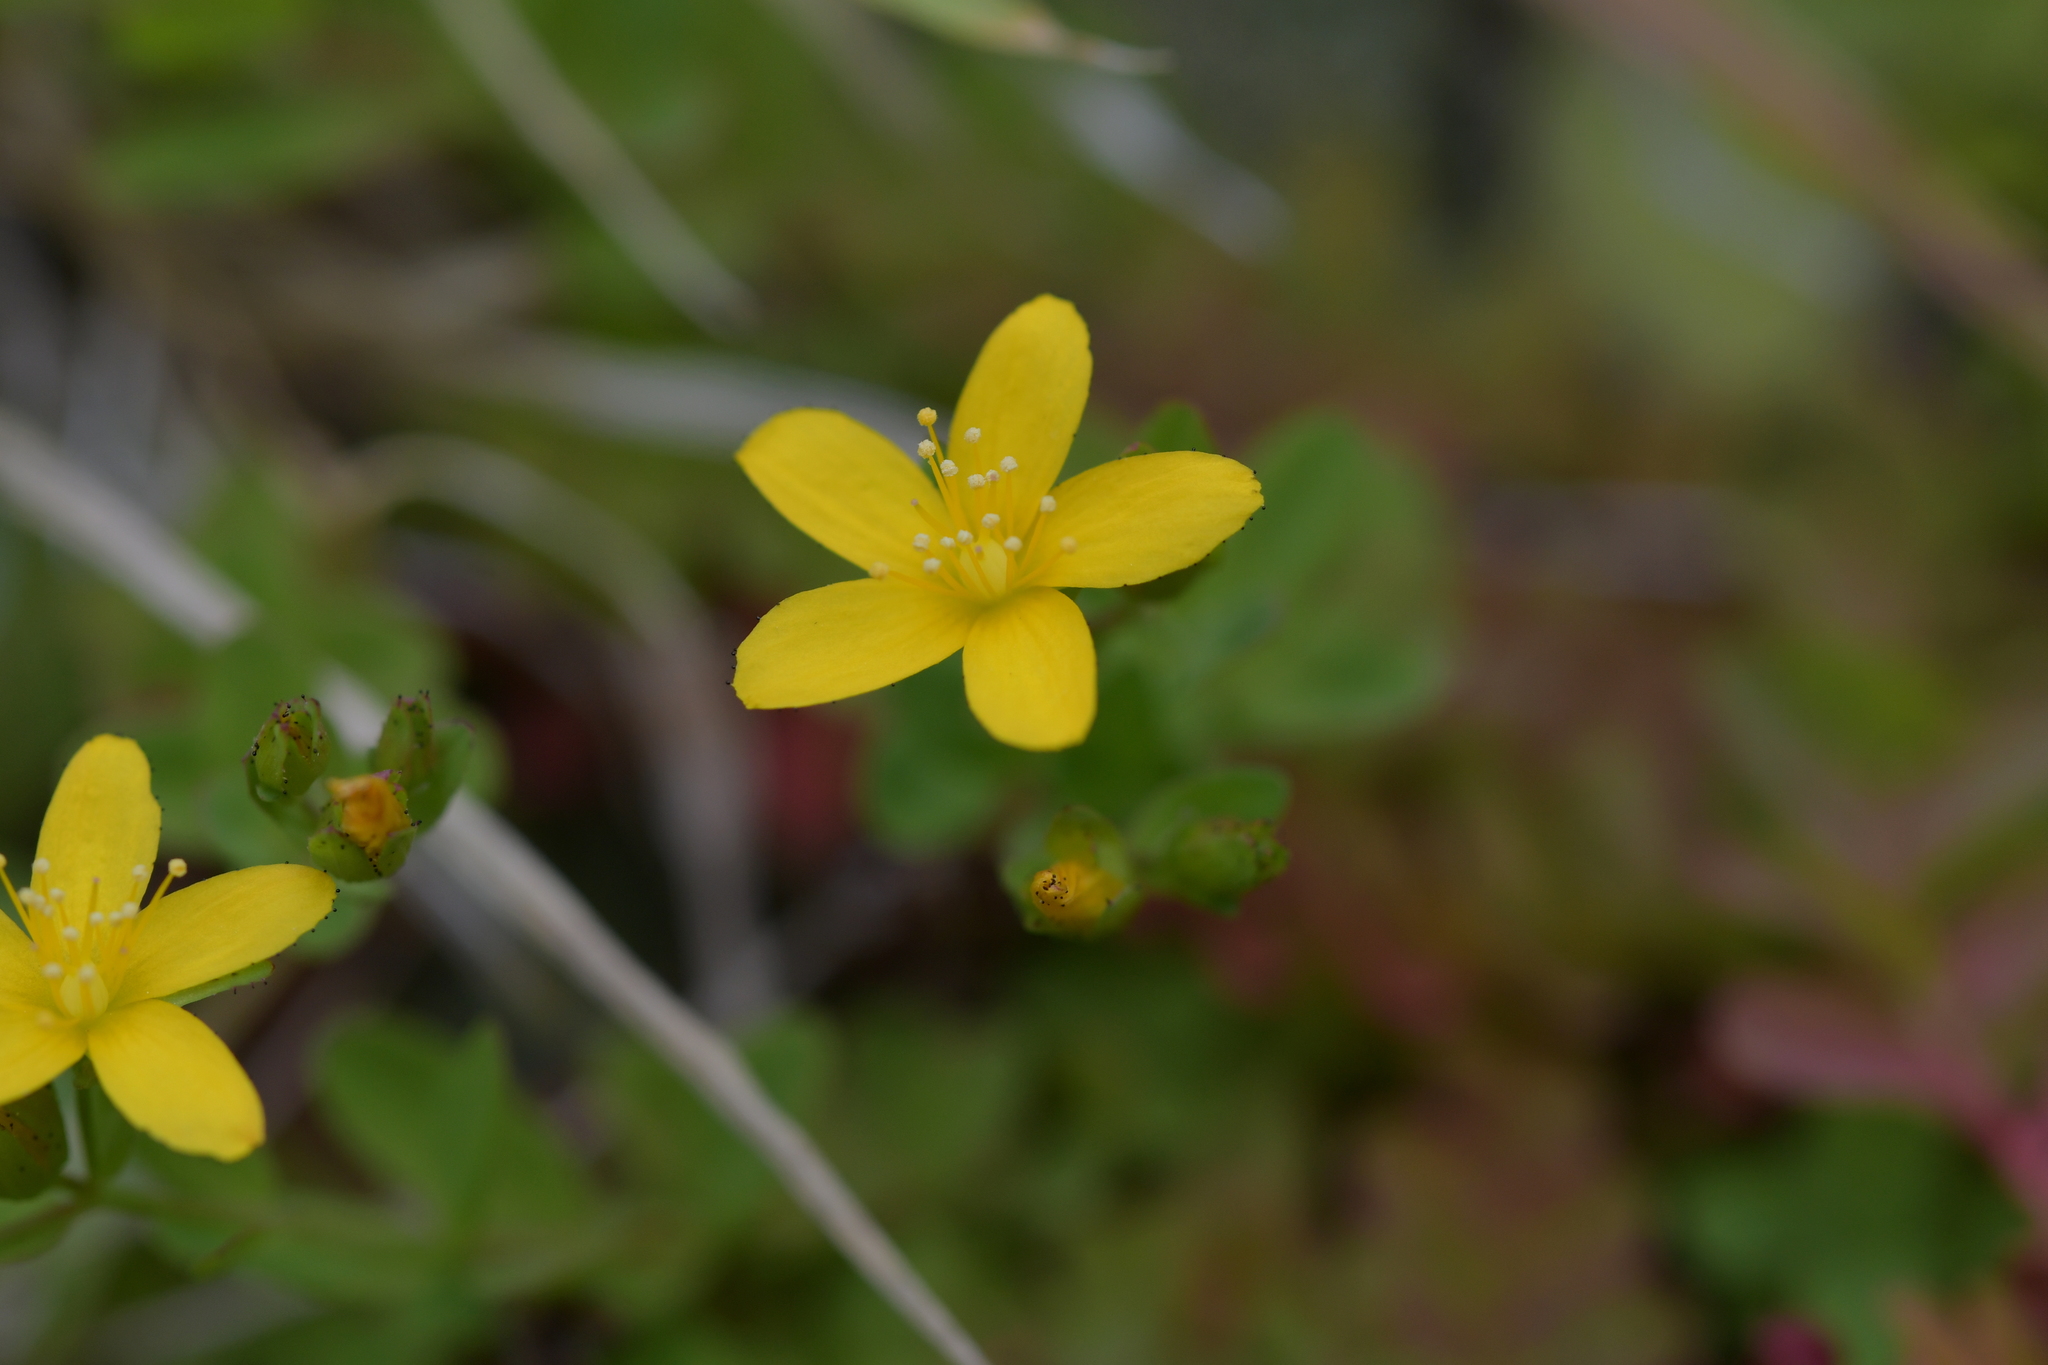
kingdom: Plantae
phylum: Tracheophyta
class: Magnoliopsida
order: Malpighiales
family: Hypericaceae
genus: Hypericum
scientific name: Hypericum humifusum
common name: Trailing st. john's-wort
